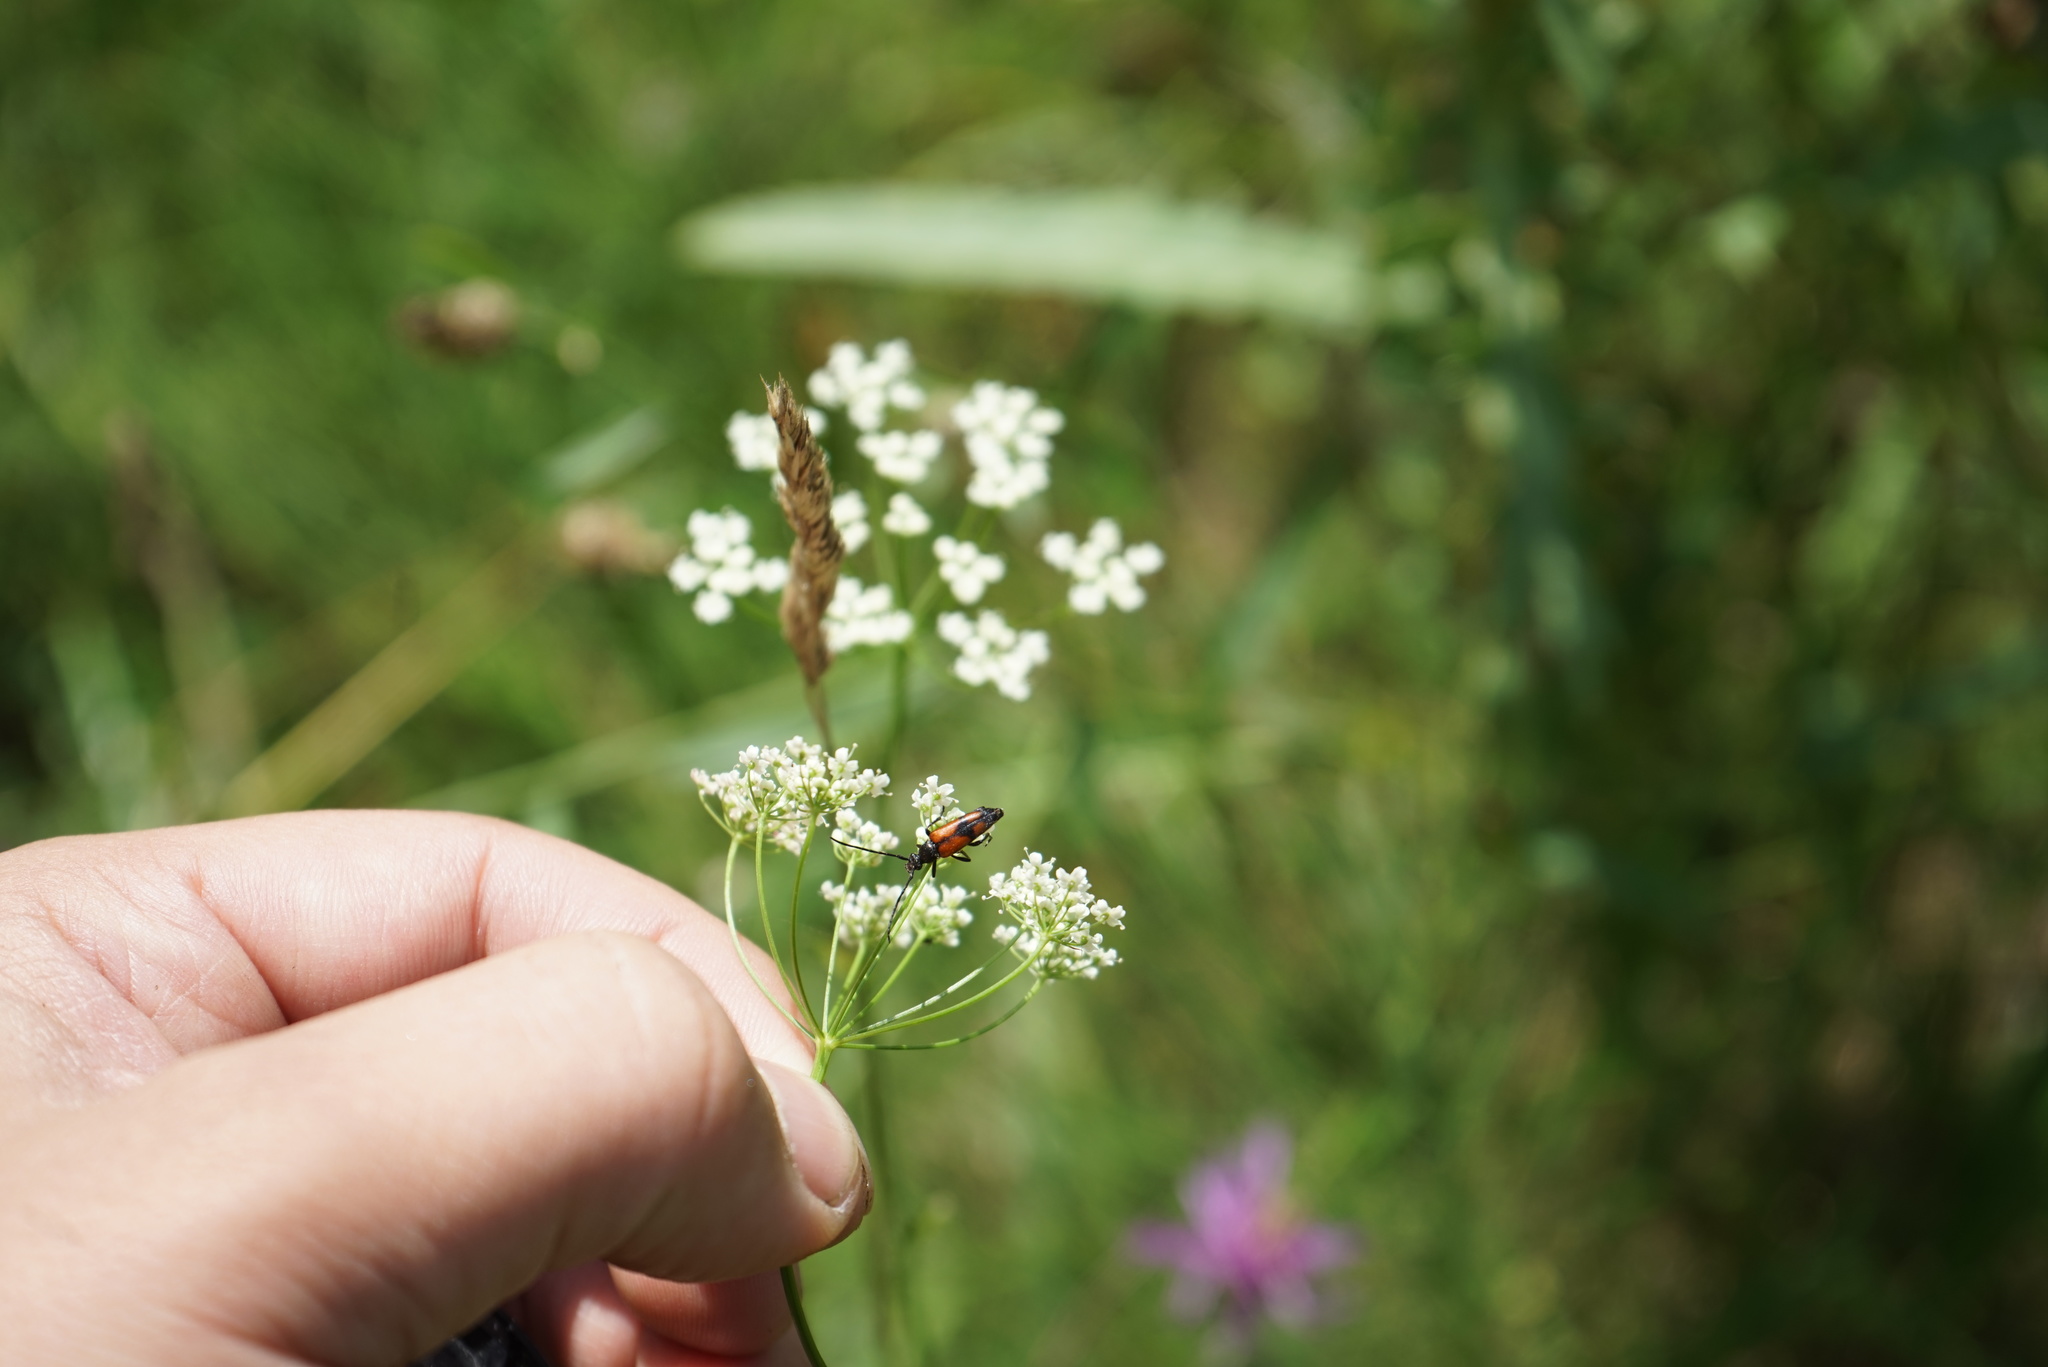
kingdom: Animalia
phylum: Arthropoda
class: Insecta
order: Coleoptera
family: Cerambycidae
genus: Stenurella
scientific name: Stenurella bifasciata
